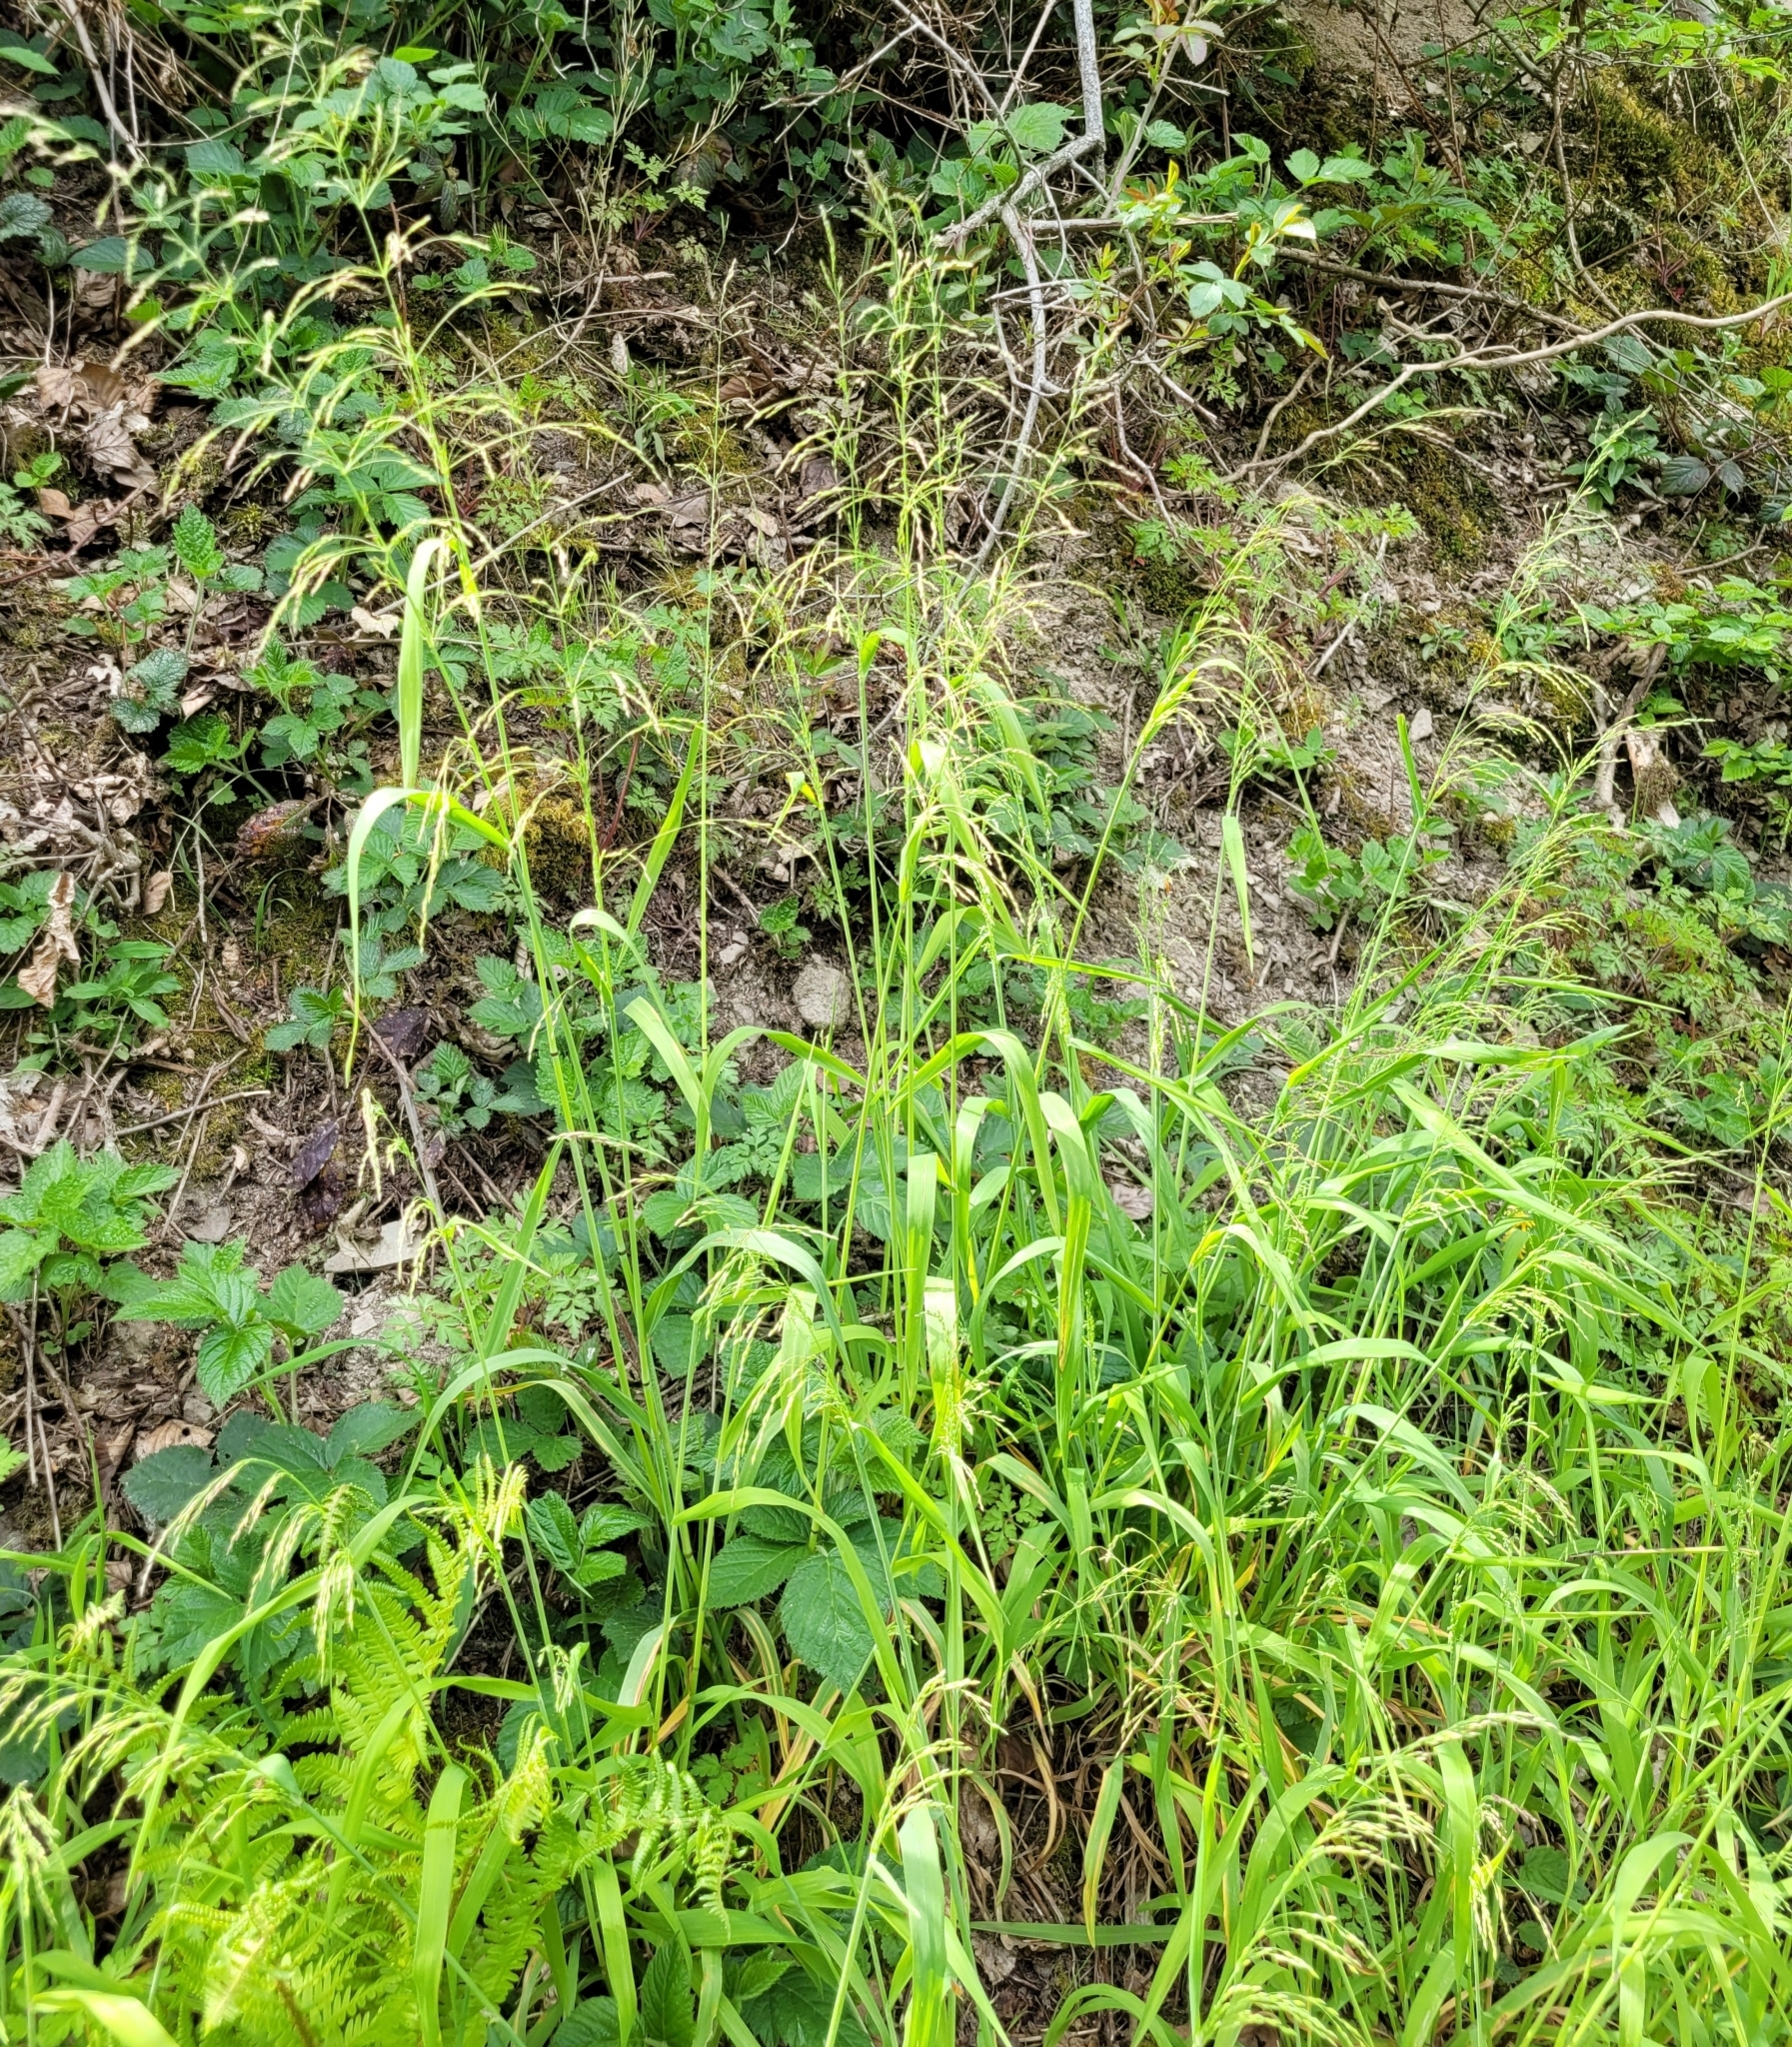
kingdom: Plantae
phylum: Tracheophyta
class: Liliopsida
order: Poales
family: Poaceae
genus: Milium
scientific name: Milium effusum
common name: Wood millet
